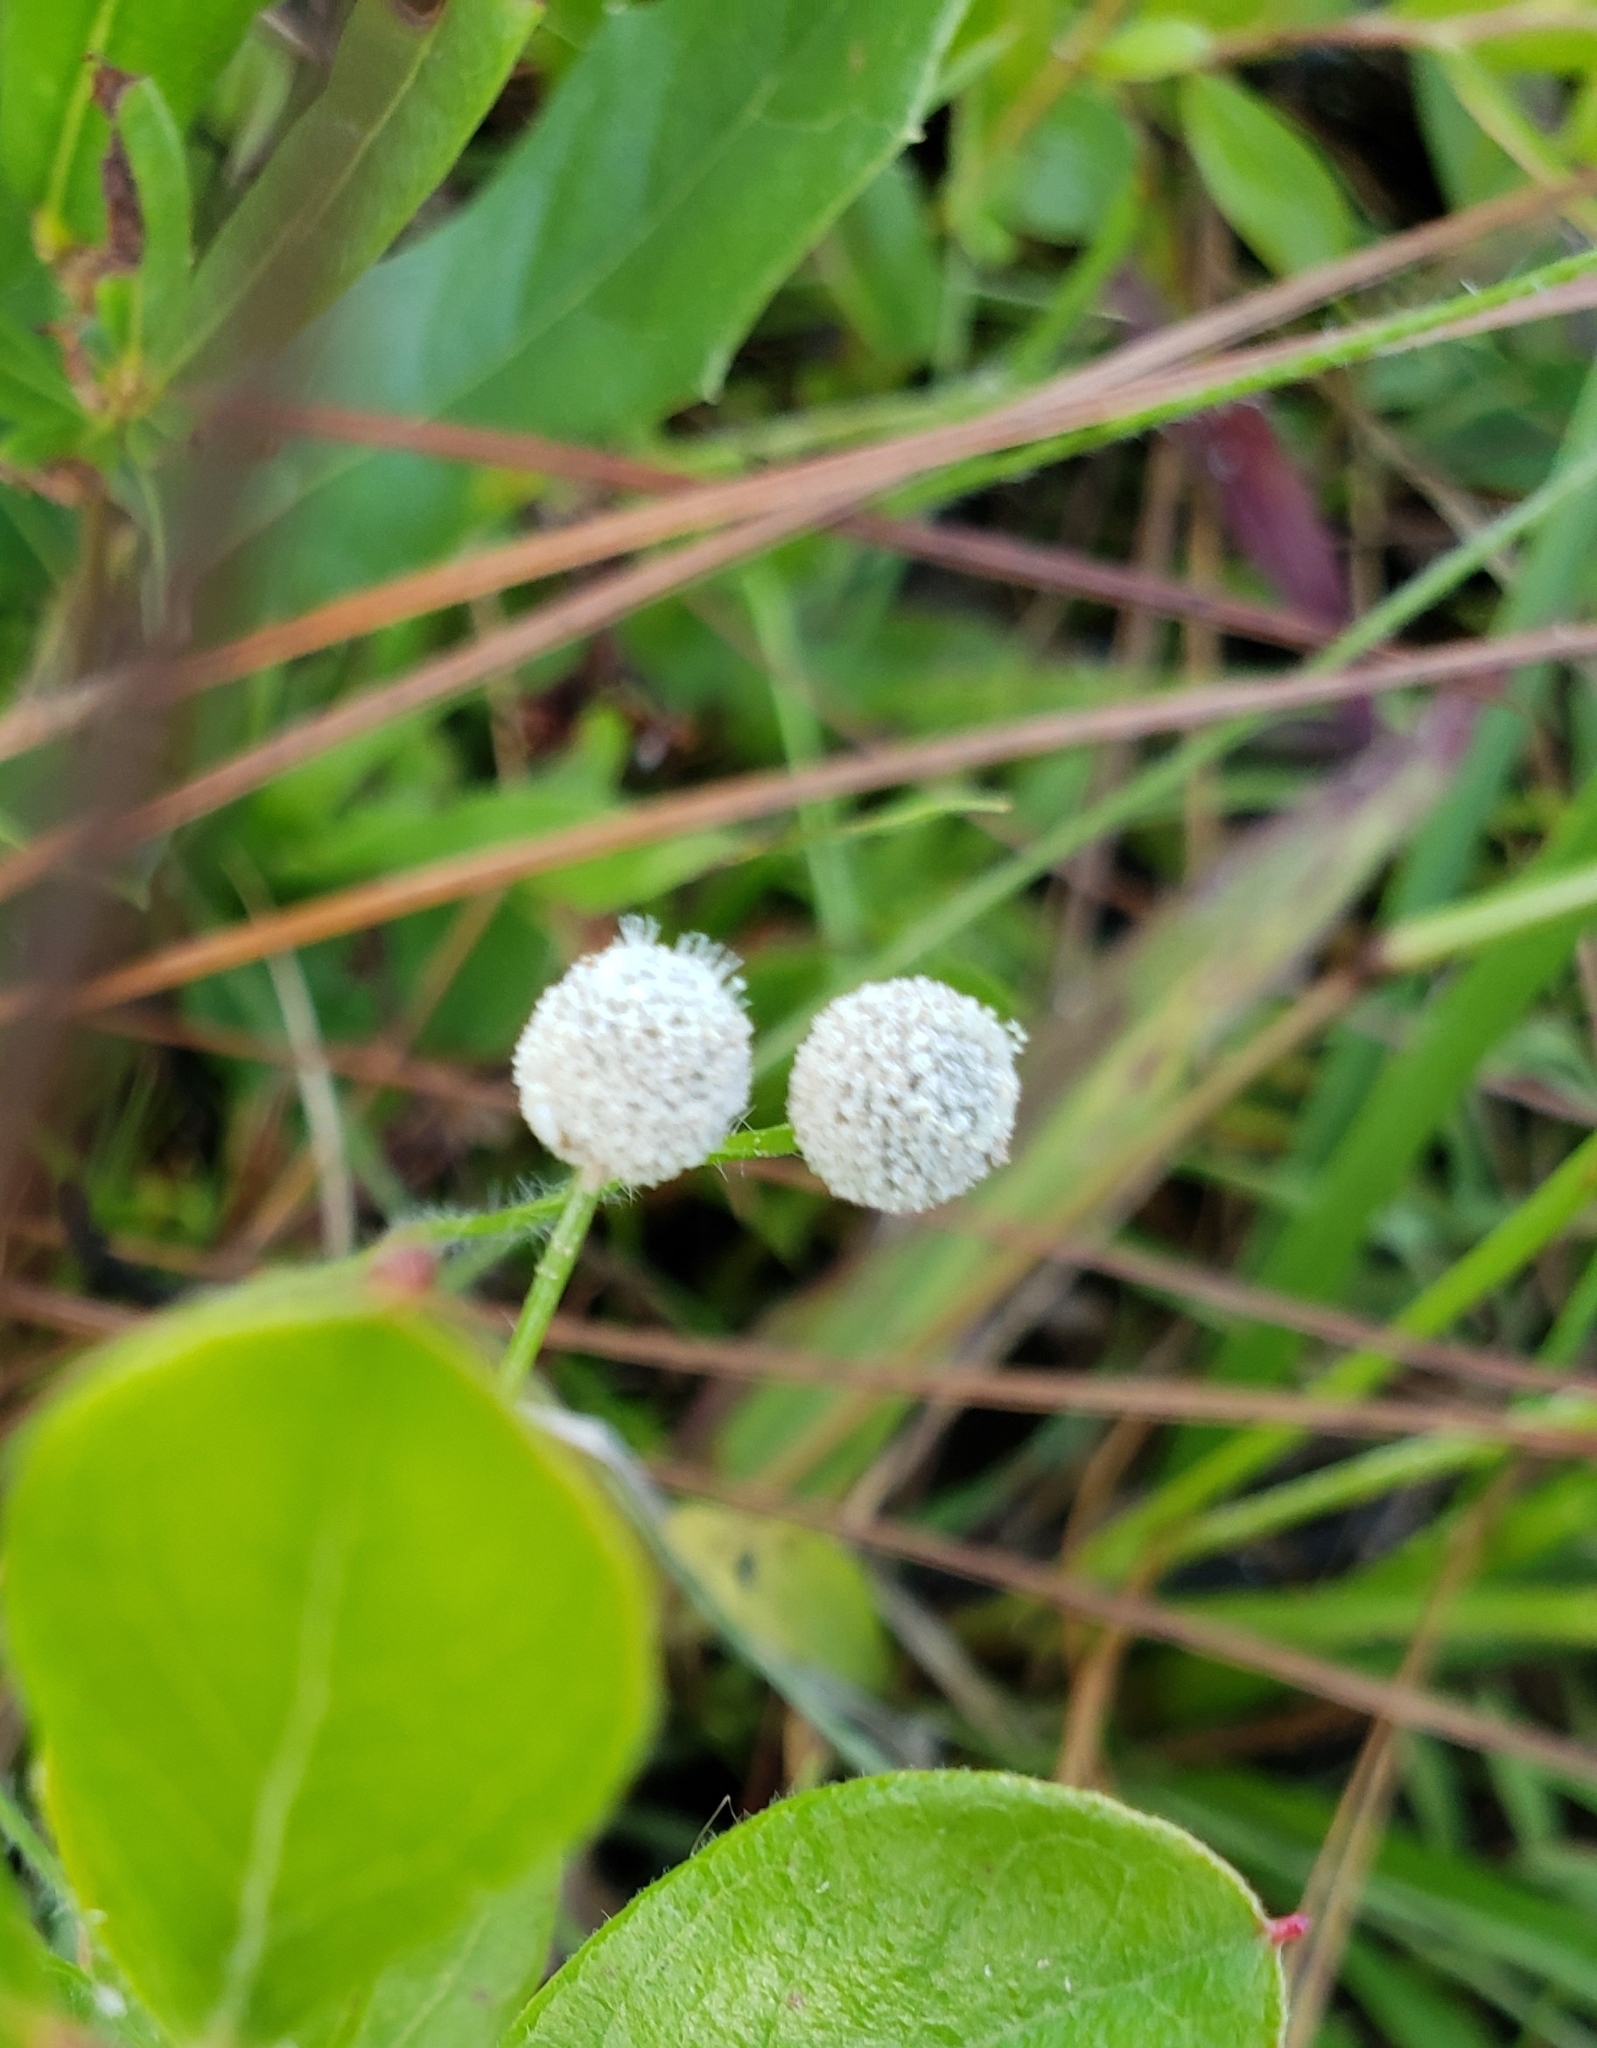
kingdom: Plantae
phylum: Tracheophyta
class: Liliopsida
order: Poales
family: Eriocaulaceae
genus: Paepalanthus
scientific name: Paepalanthus anceps
